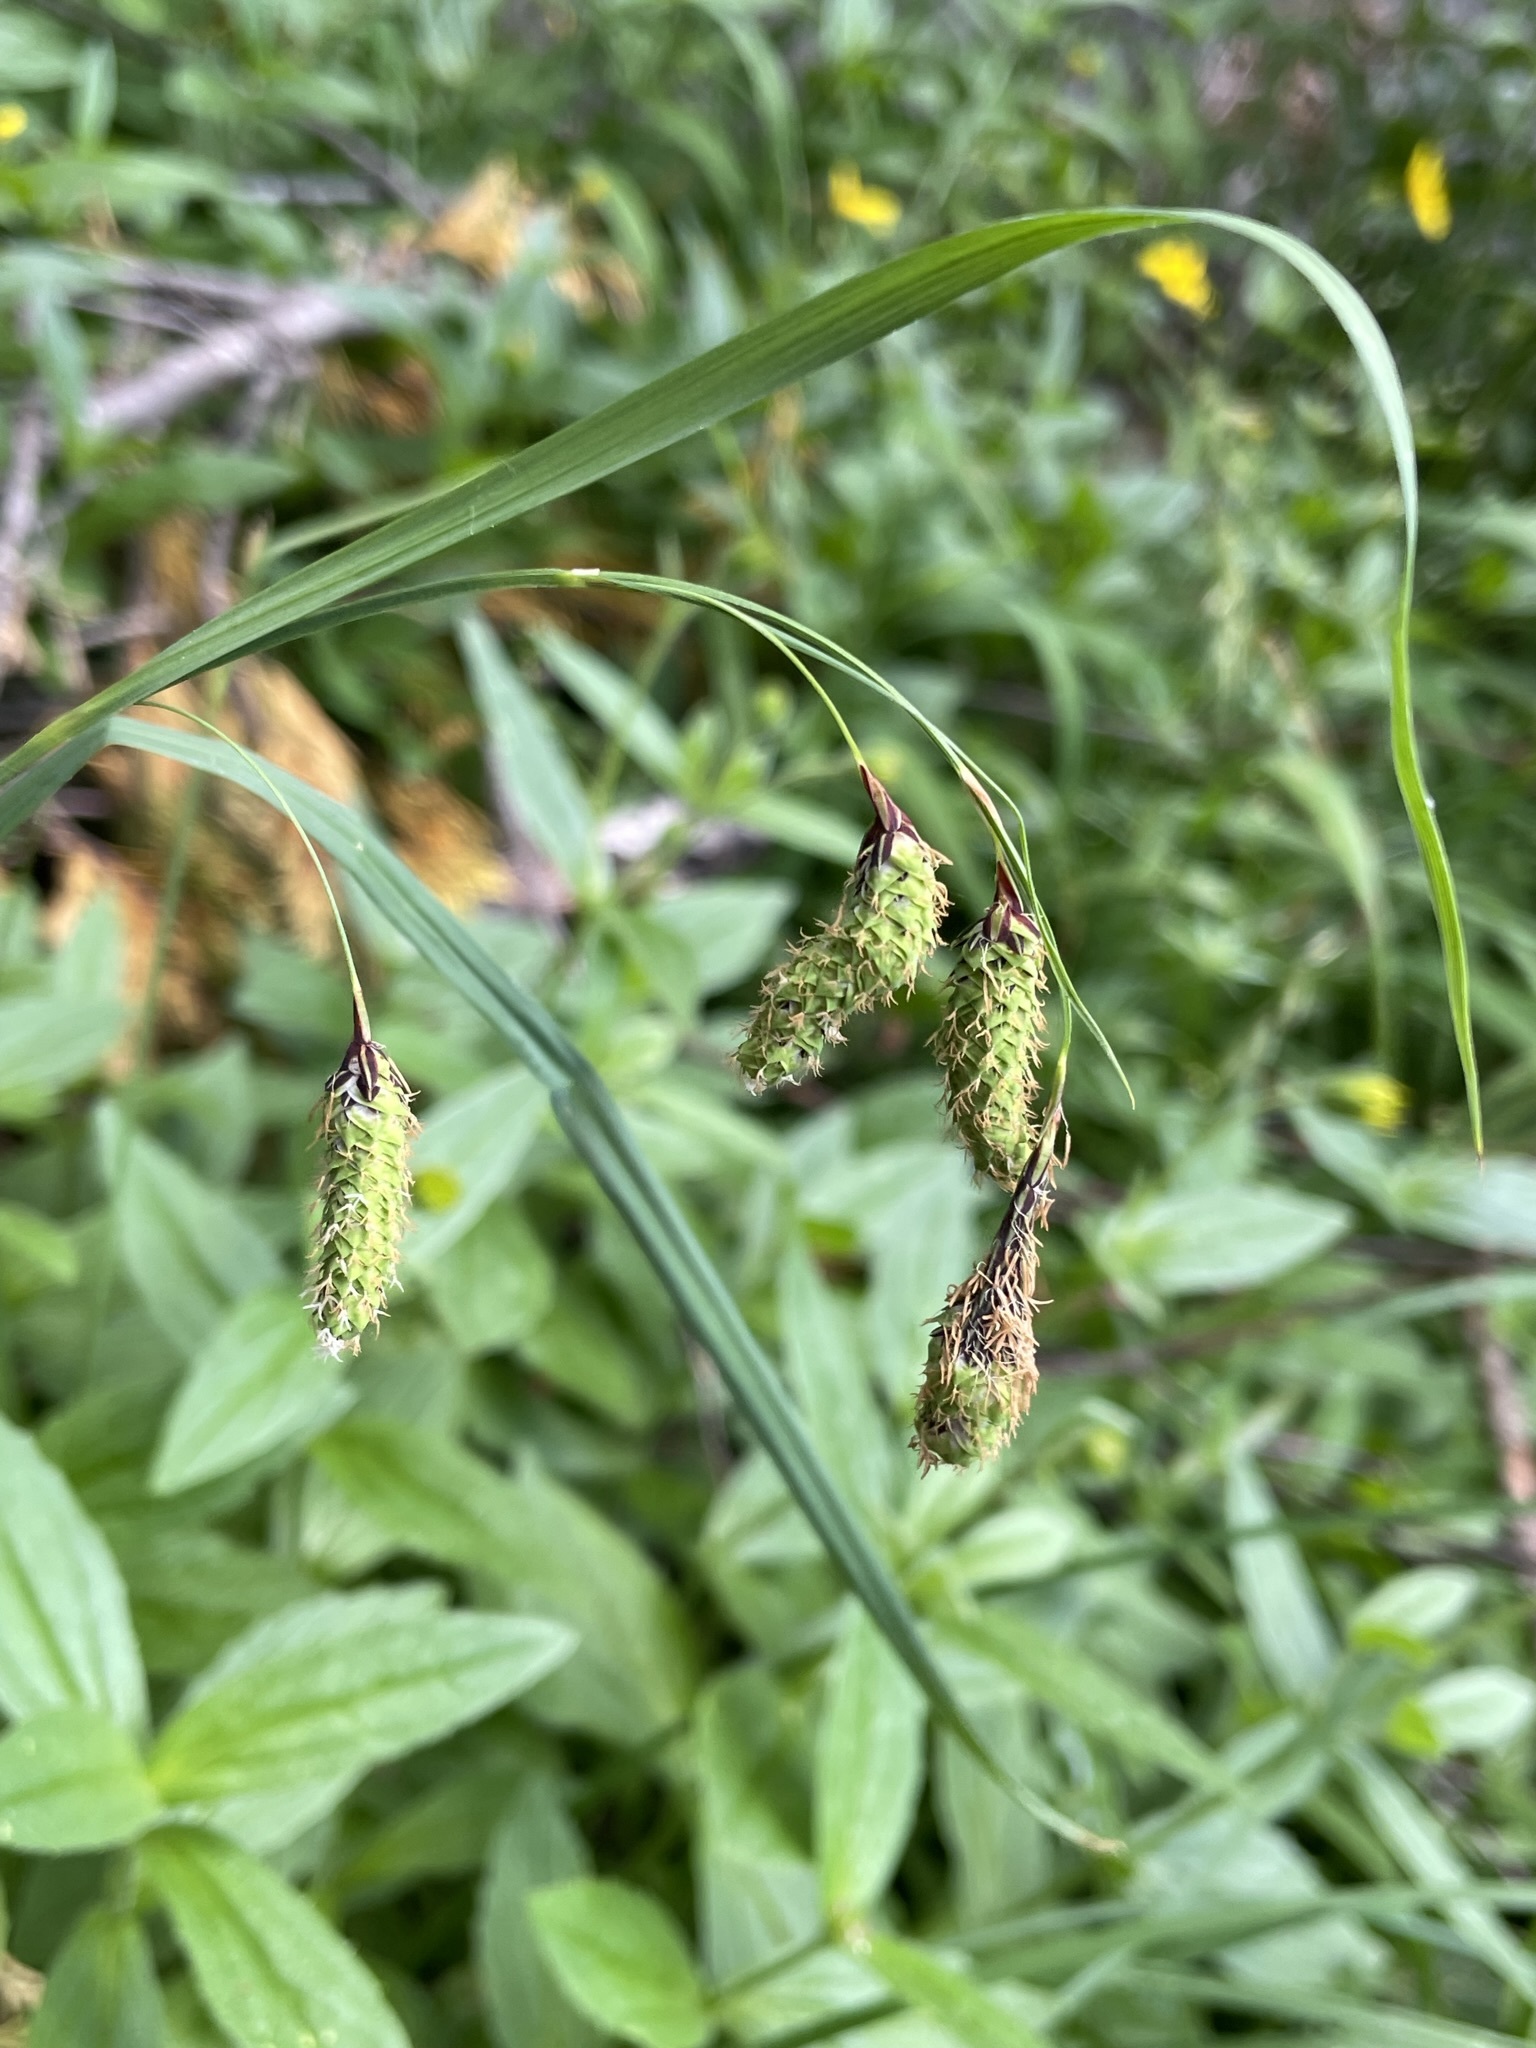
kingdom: Plantae
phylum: Tracheophyta
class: Liliopsida
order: Poales
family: Cyperaceae
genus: Carex
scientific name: Carex mertensii
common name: Mertens' sedge
